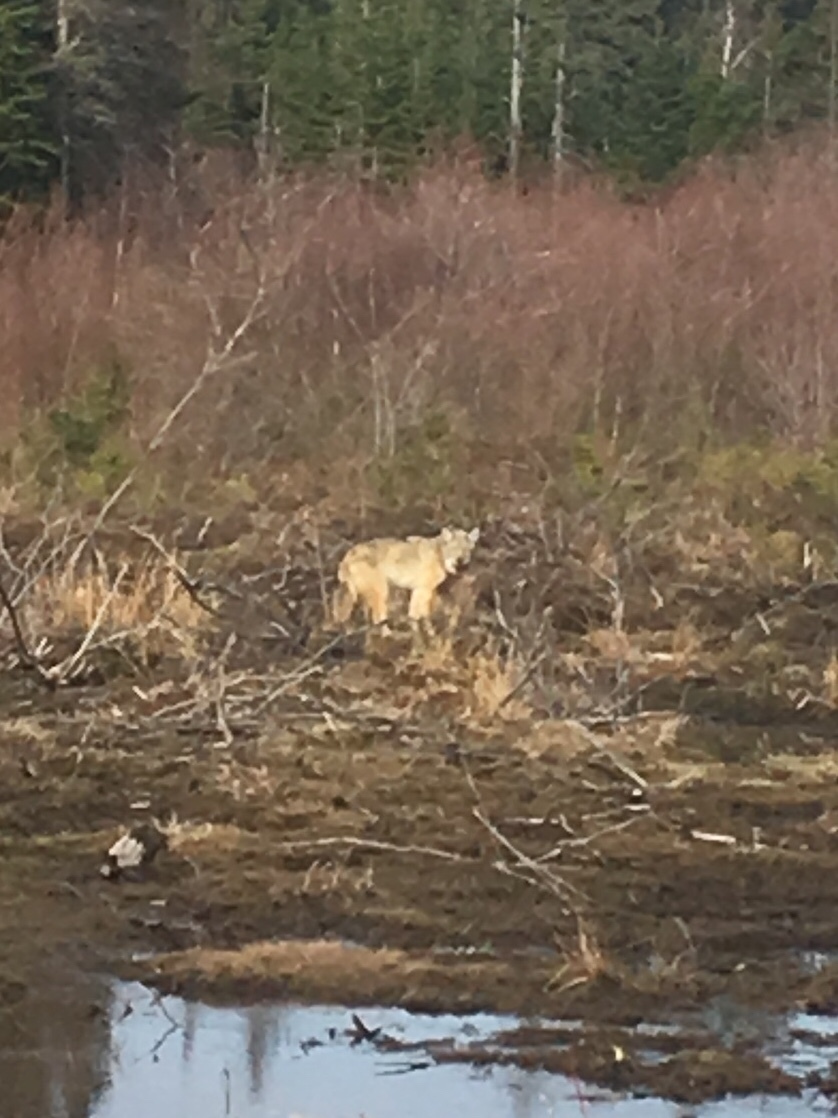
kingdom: Animalia
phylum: Chordata
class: Mammalia
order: Carnivora
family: Canidae
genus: Canis
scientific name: Canis latrans
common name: Coyote
